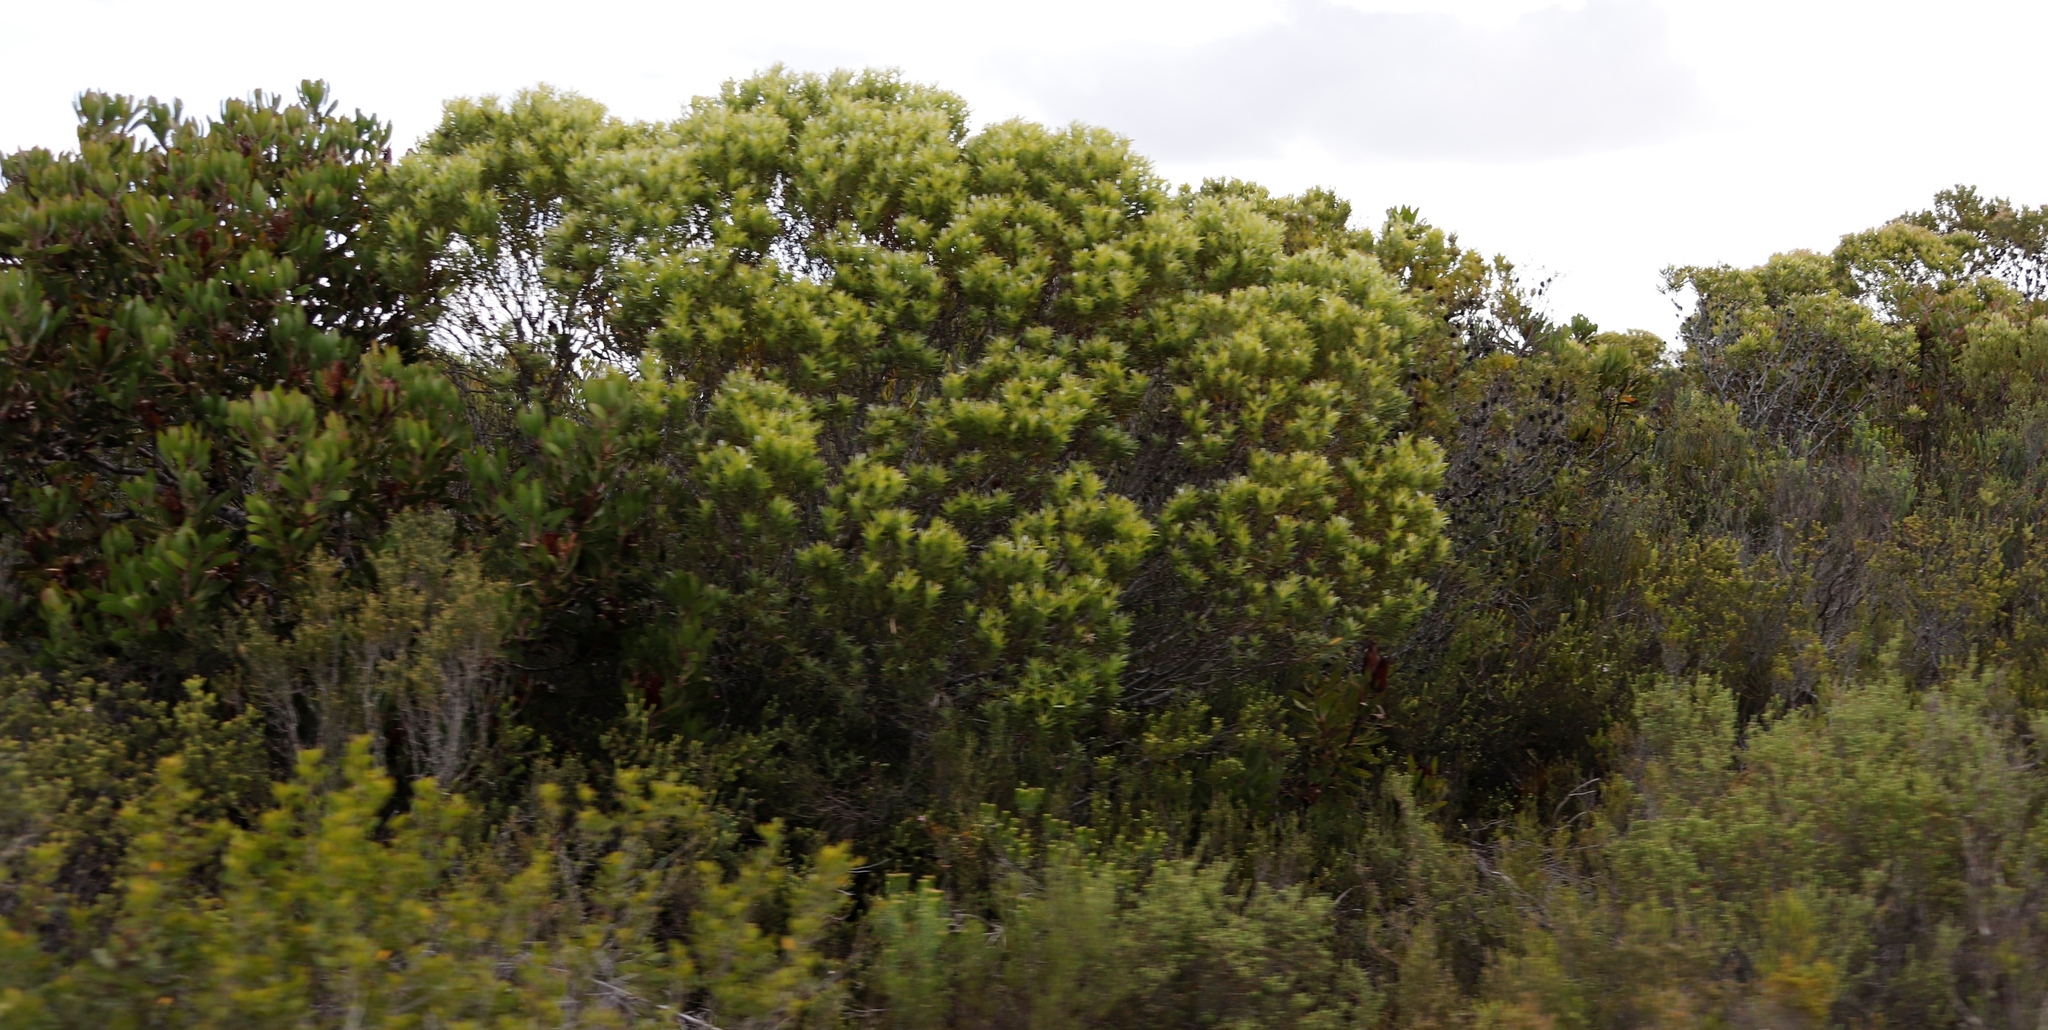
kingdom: Plantae
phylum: Tracheophyta
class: Magnoliopsida
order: Proteales
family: Proteaceae
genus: Leucadendron
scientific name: Leucadendron meridianum
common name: Limestone conebush
